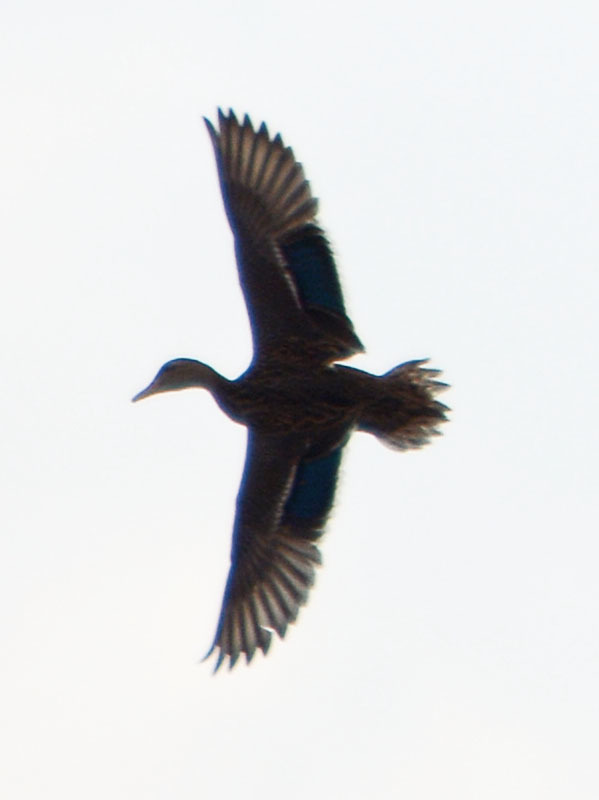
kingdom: Animalia
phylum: Chordata
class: Aves
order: Anseriformes
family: Anatidae
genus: Anas
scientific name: Anas diazi
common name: Mexican duck
